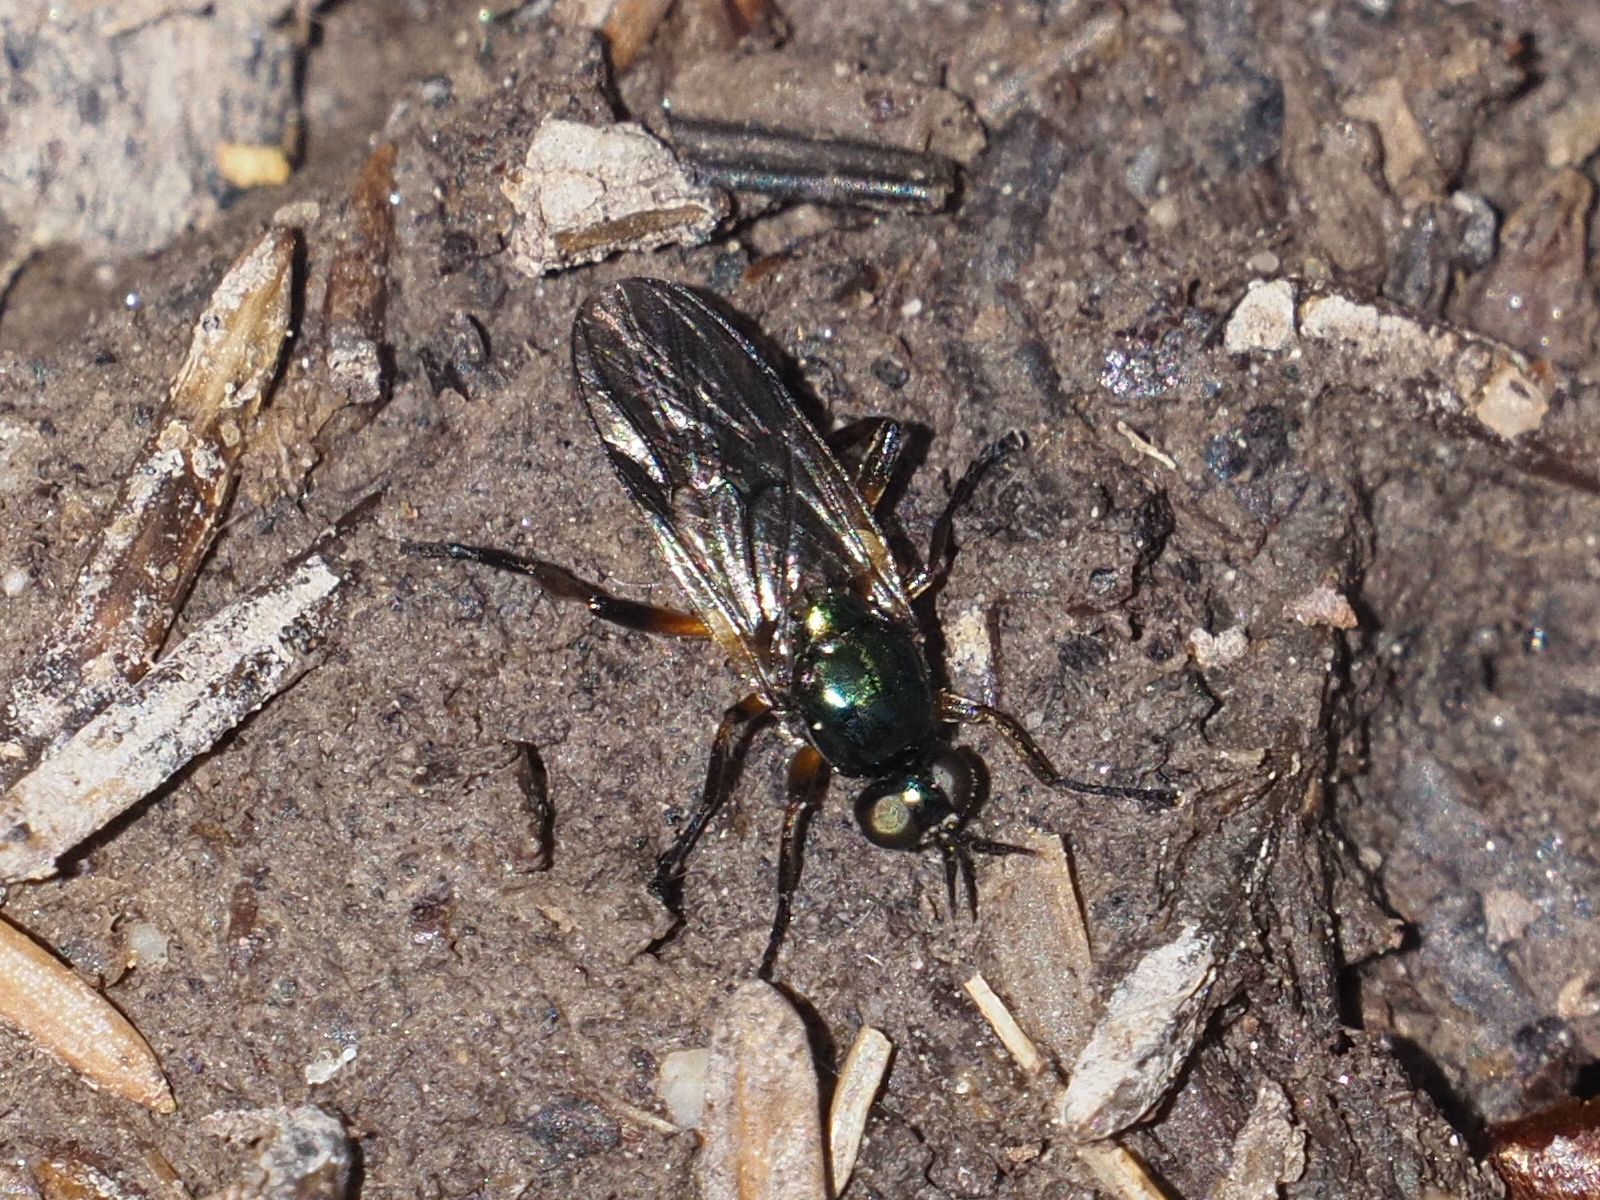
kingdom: Animalia
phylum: Arthropoda
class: Insecta
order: Diptera
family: Stratiomyidae
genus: Actina
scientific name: Actina chalybea
